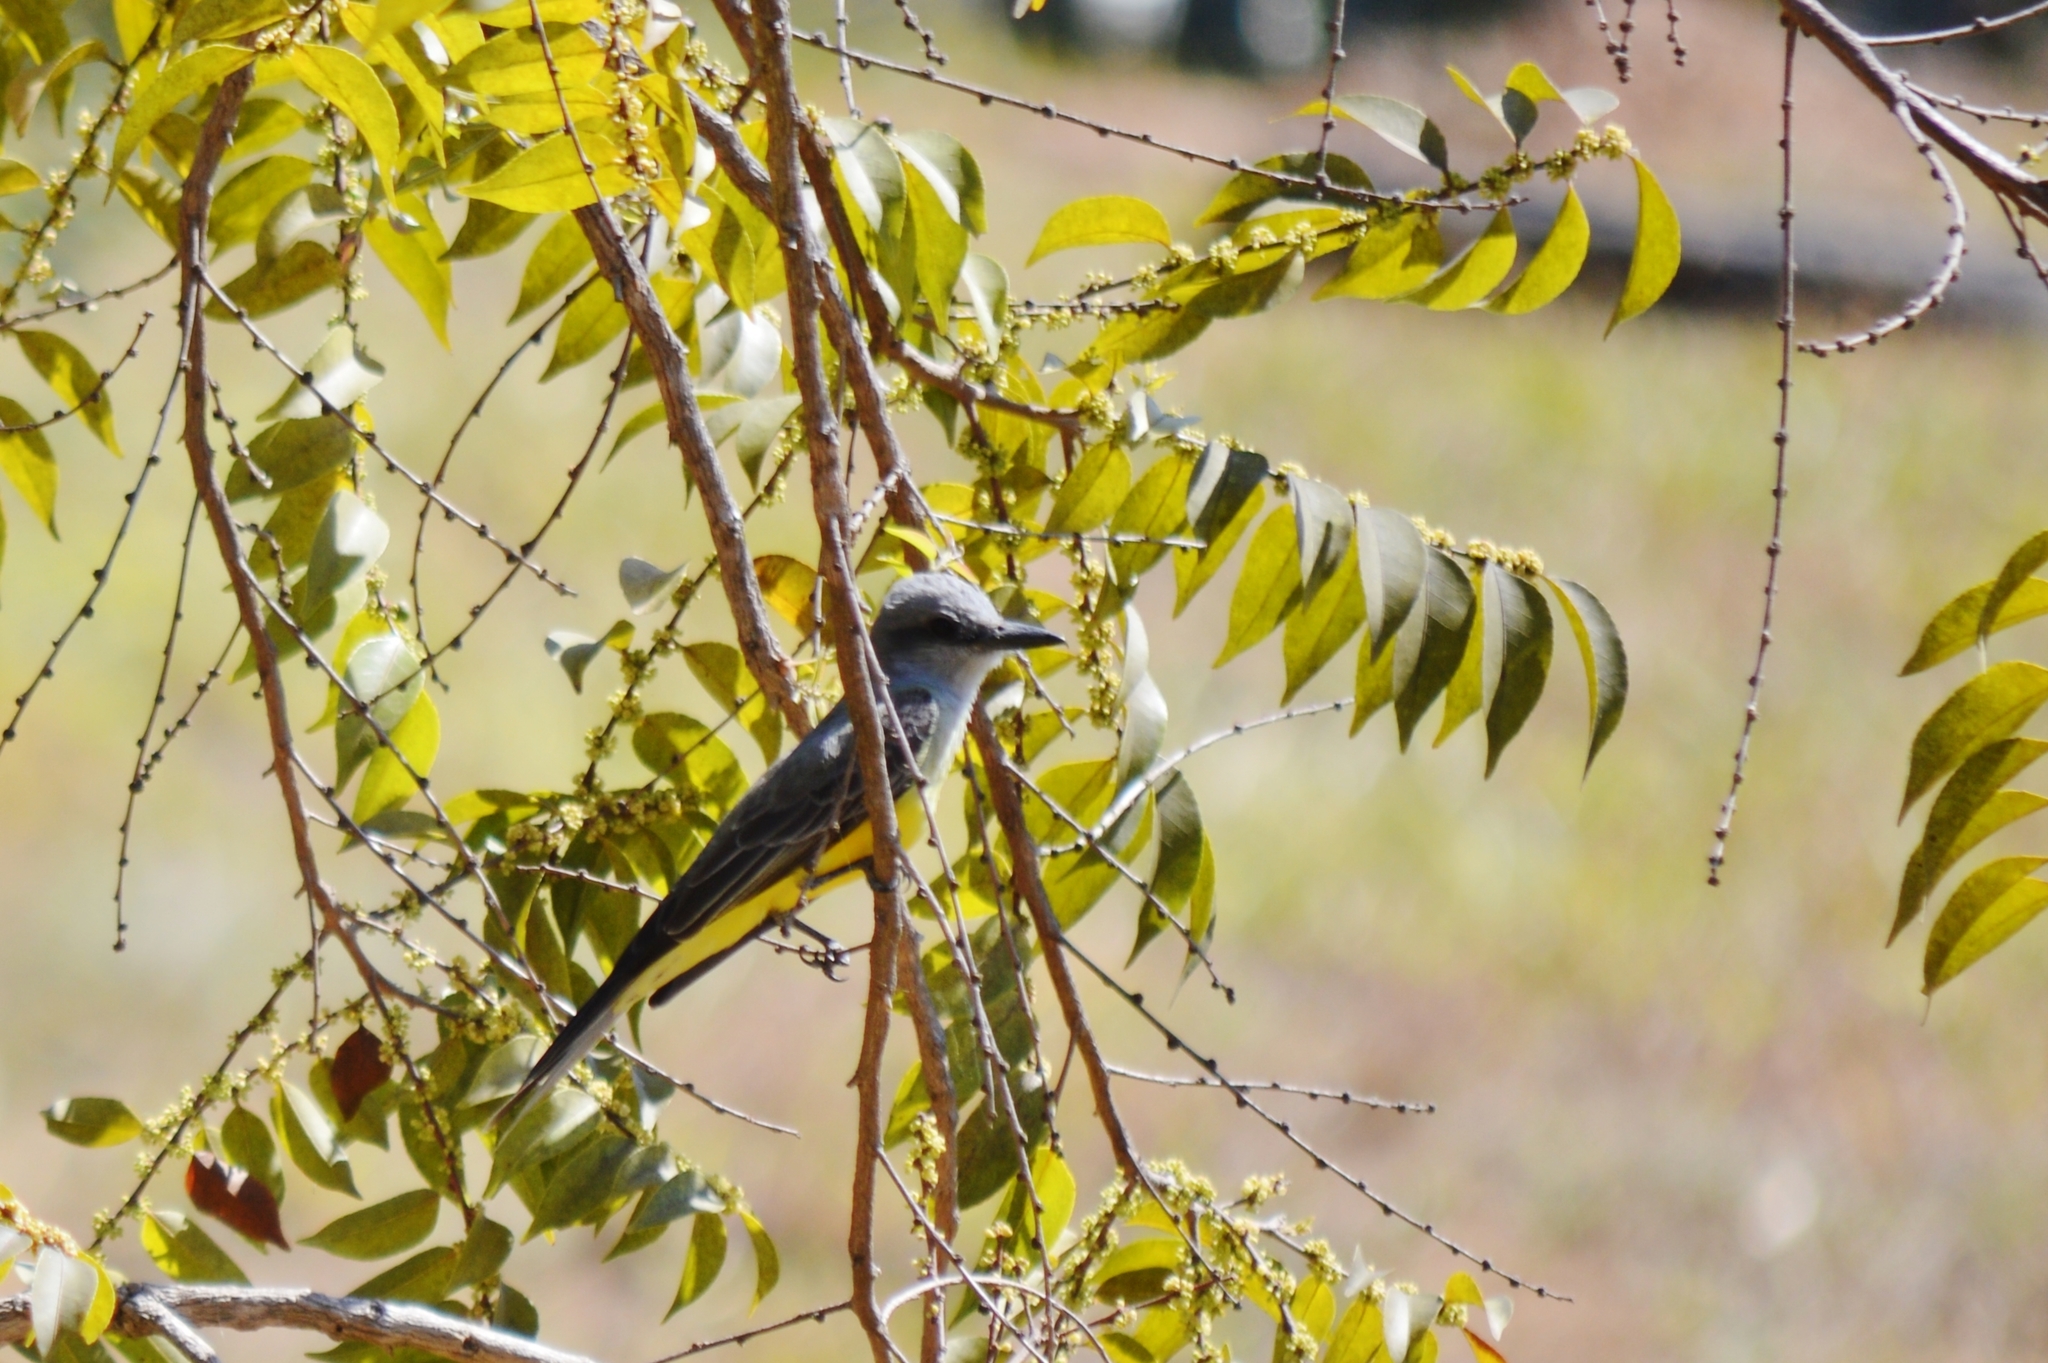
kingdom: Animalia
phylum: Chordata
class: Aves
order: Passeriformes
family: Tyrannidae
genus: Tyrannus
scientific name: Tyrannus melancholicus
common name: Tropical kingbird
